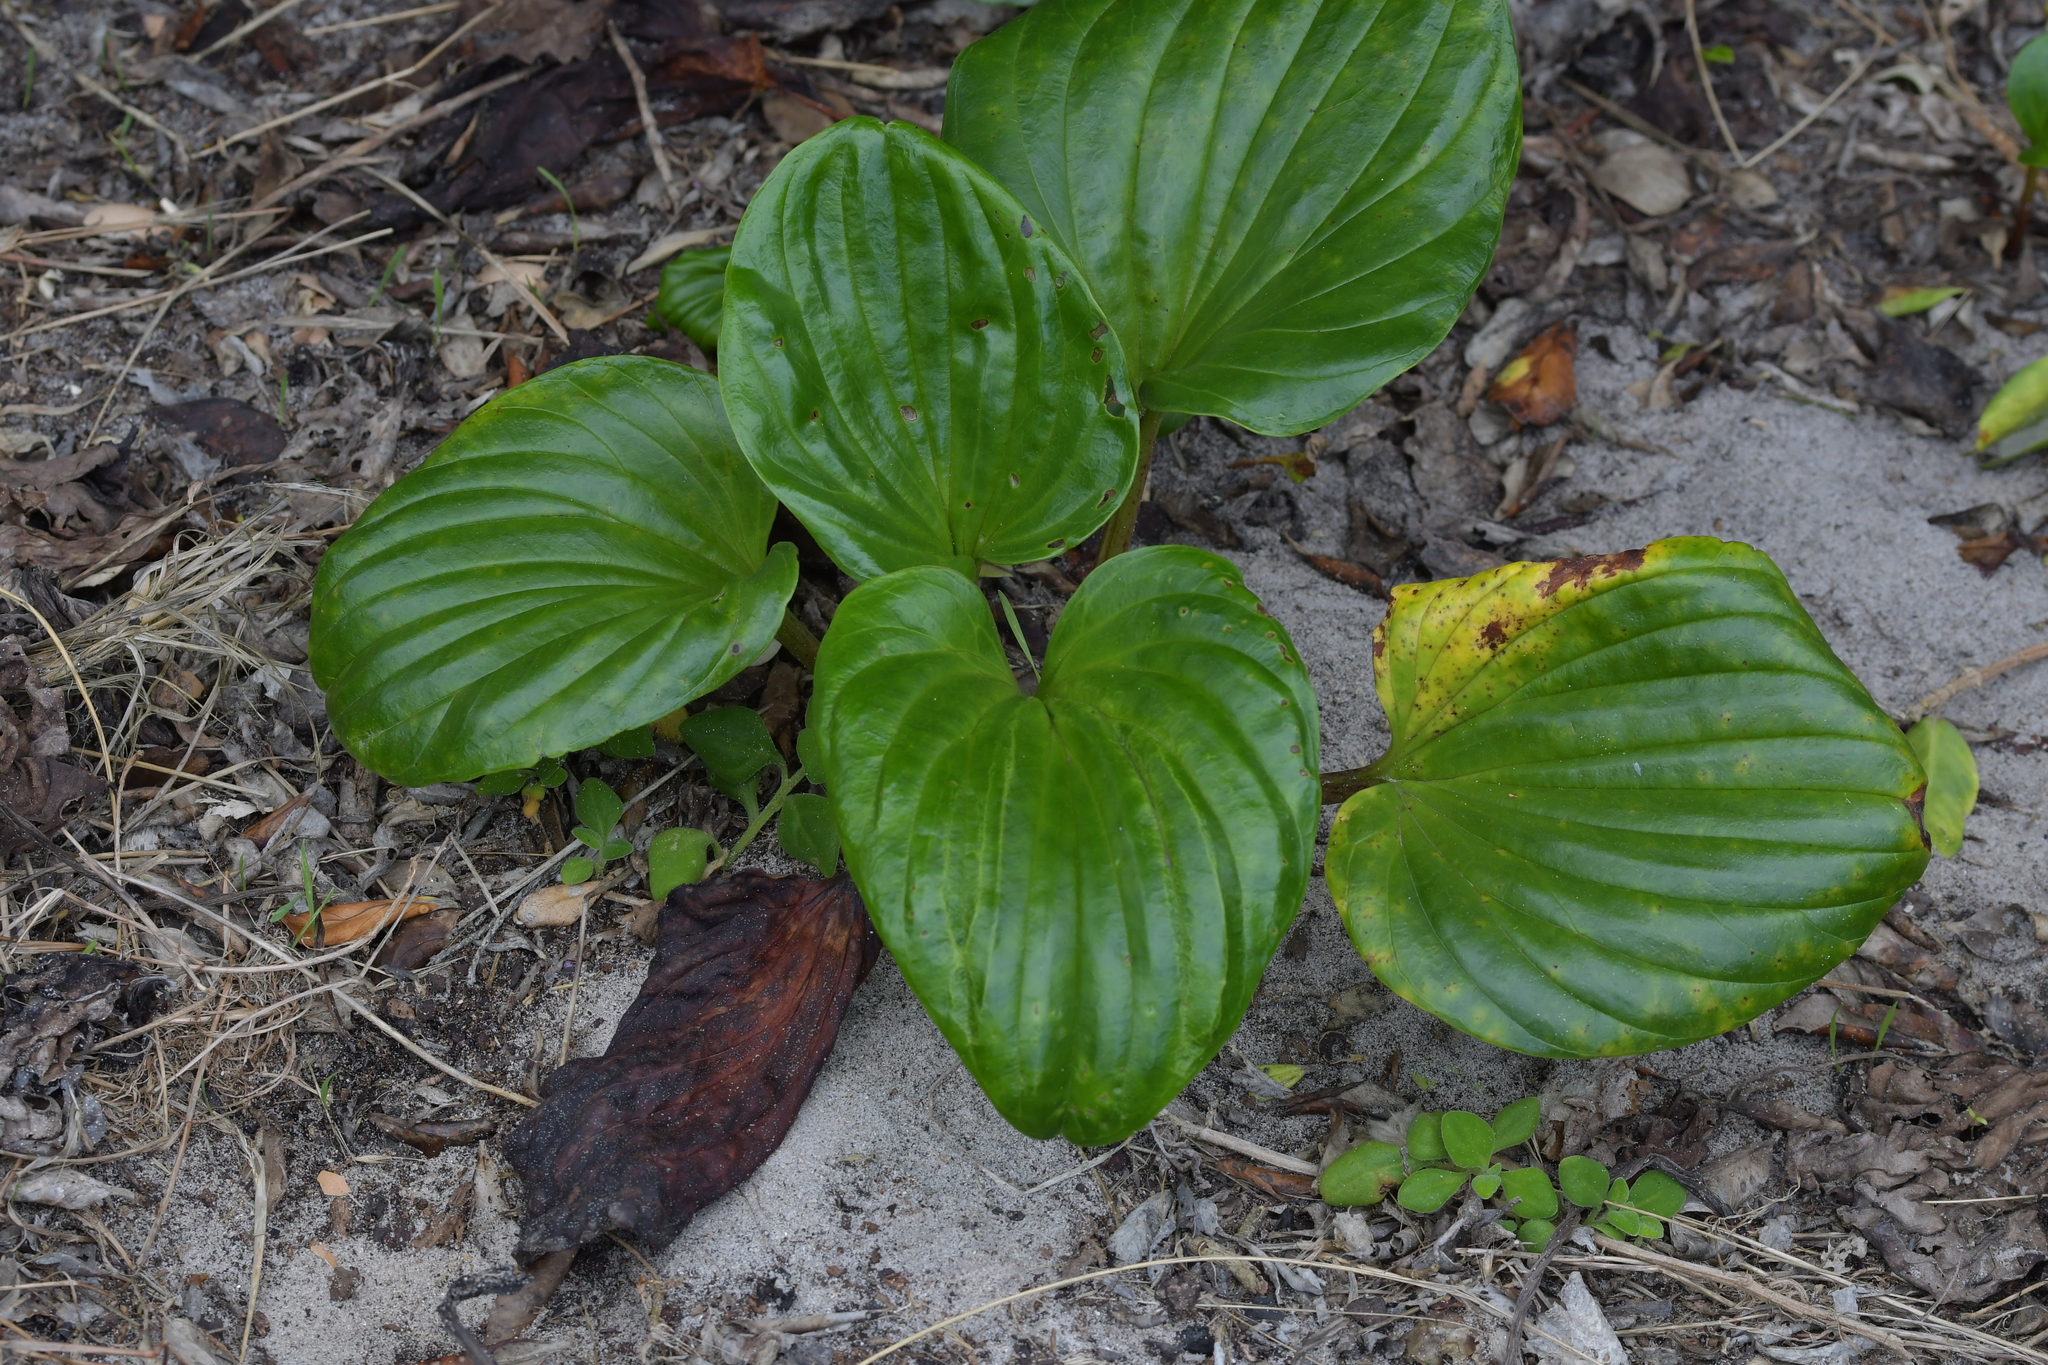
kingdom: Plantae
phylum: Tracheophyta
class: Magnoliopsida
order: Boraginales
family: Boraginaceae
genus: Myosotidium
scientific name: Myosotidium hortensia
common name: Giant forget-me-not
